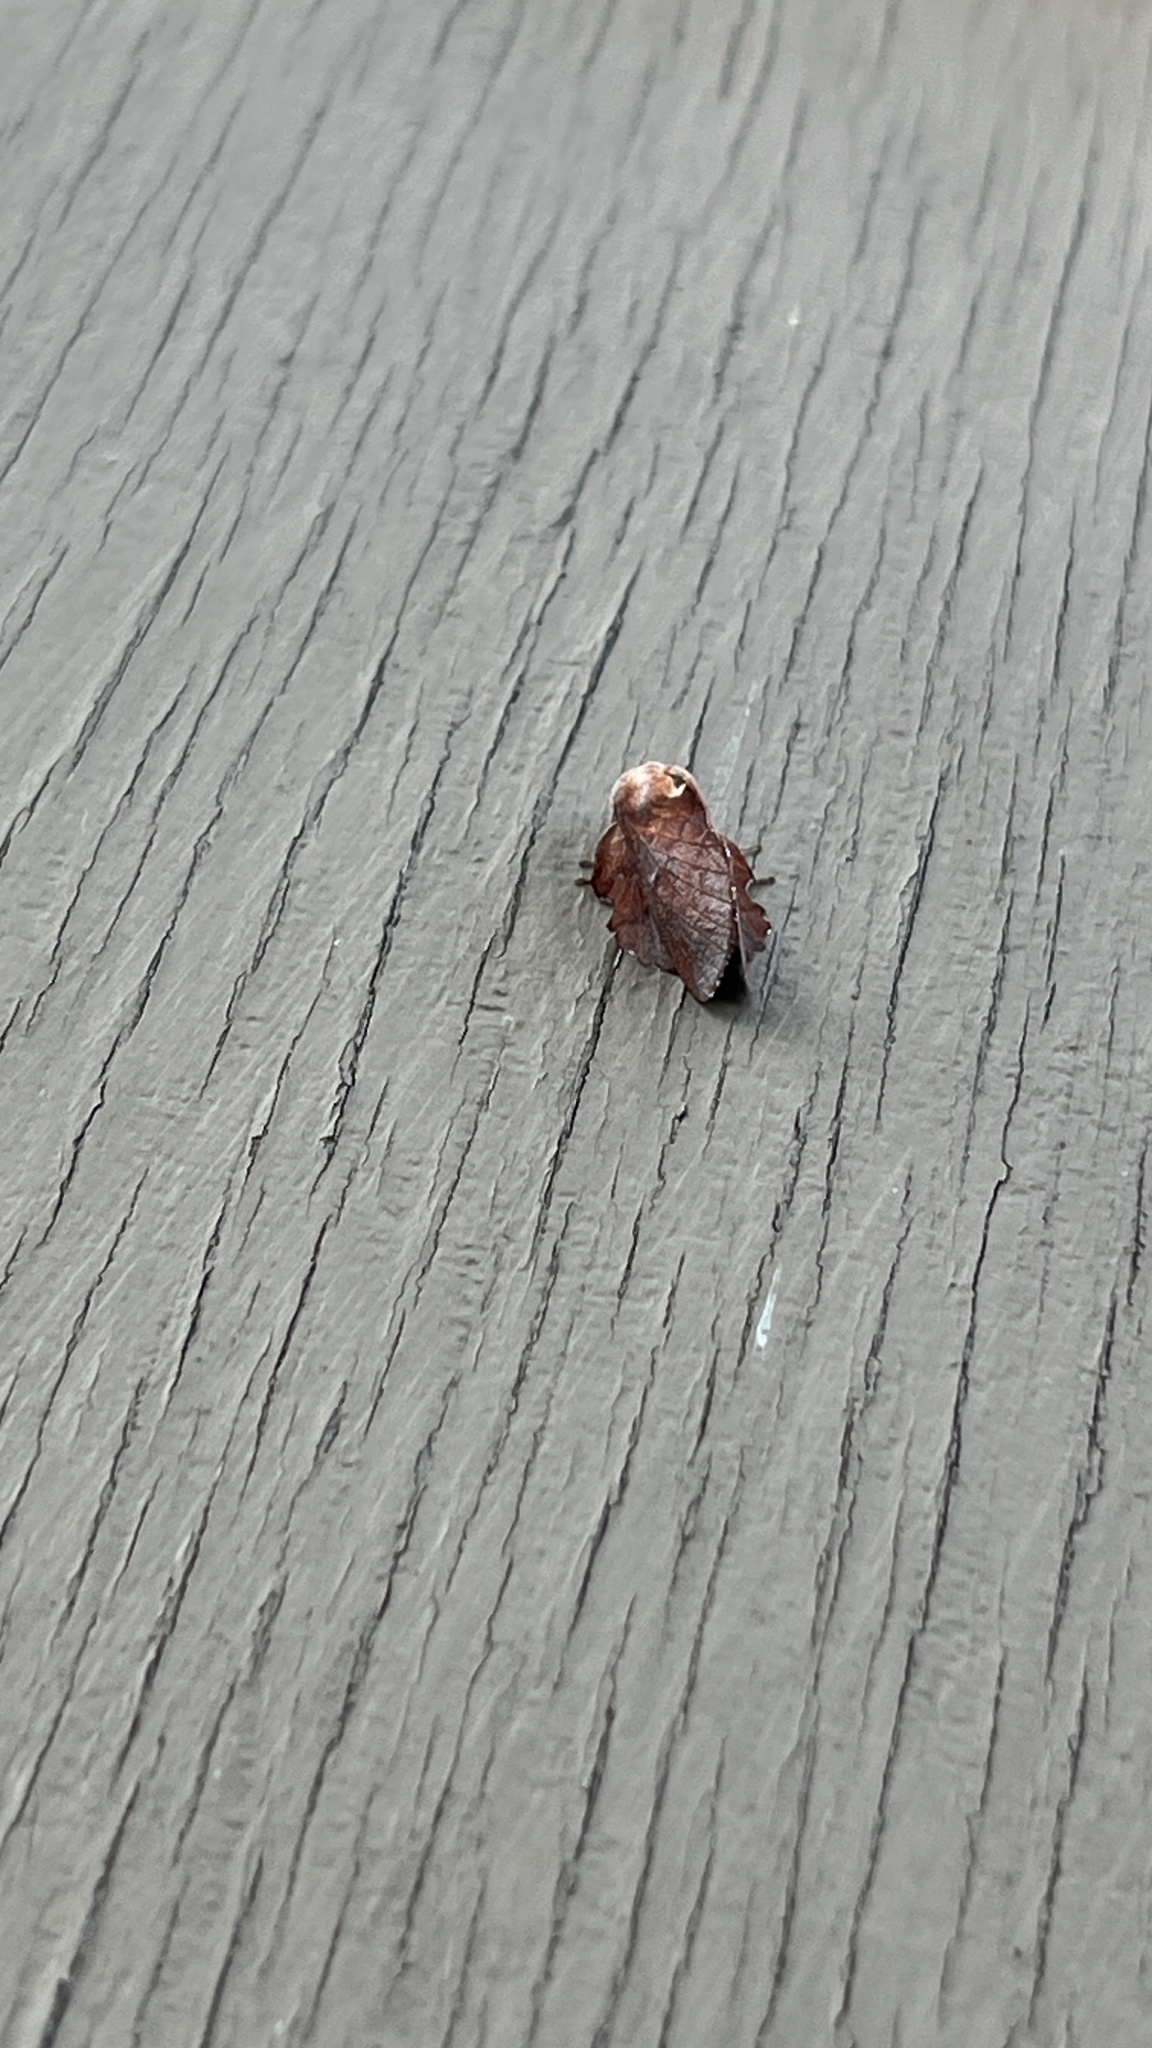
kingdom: Animalia
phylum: Arthropoda
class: Insecta
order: Lepidoptera
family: Lasiocampidae
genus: Phyllodesma
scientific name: Phyllodesma americana
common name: American lappet moth
